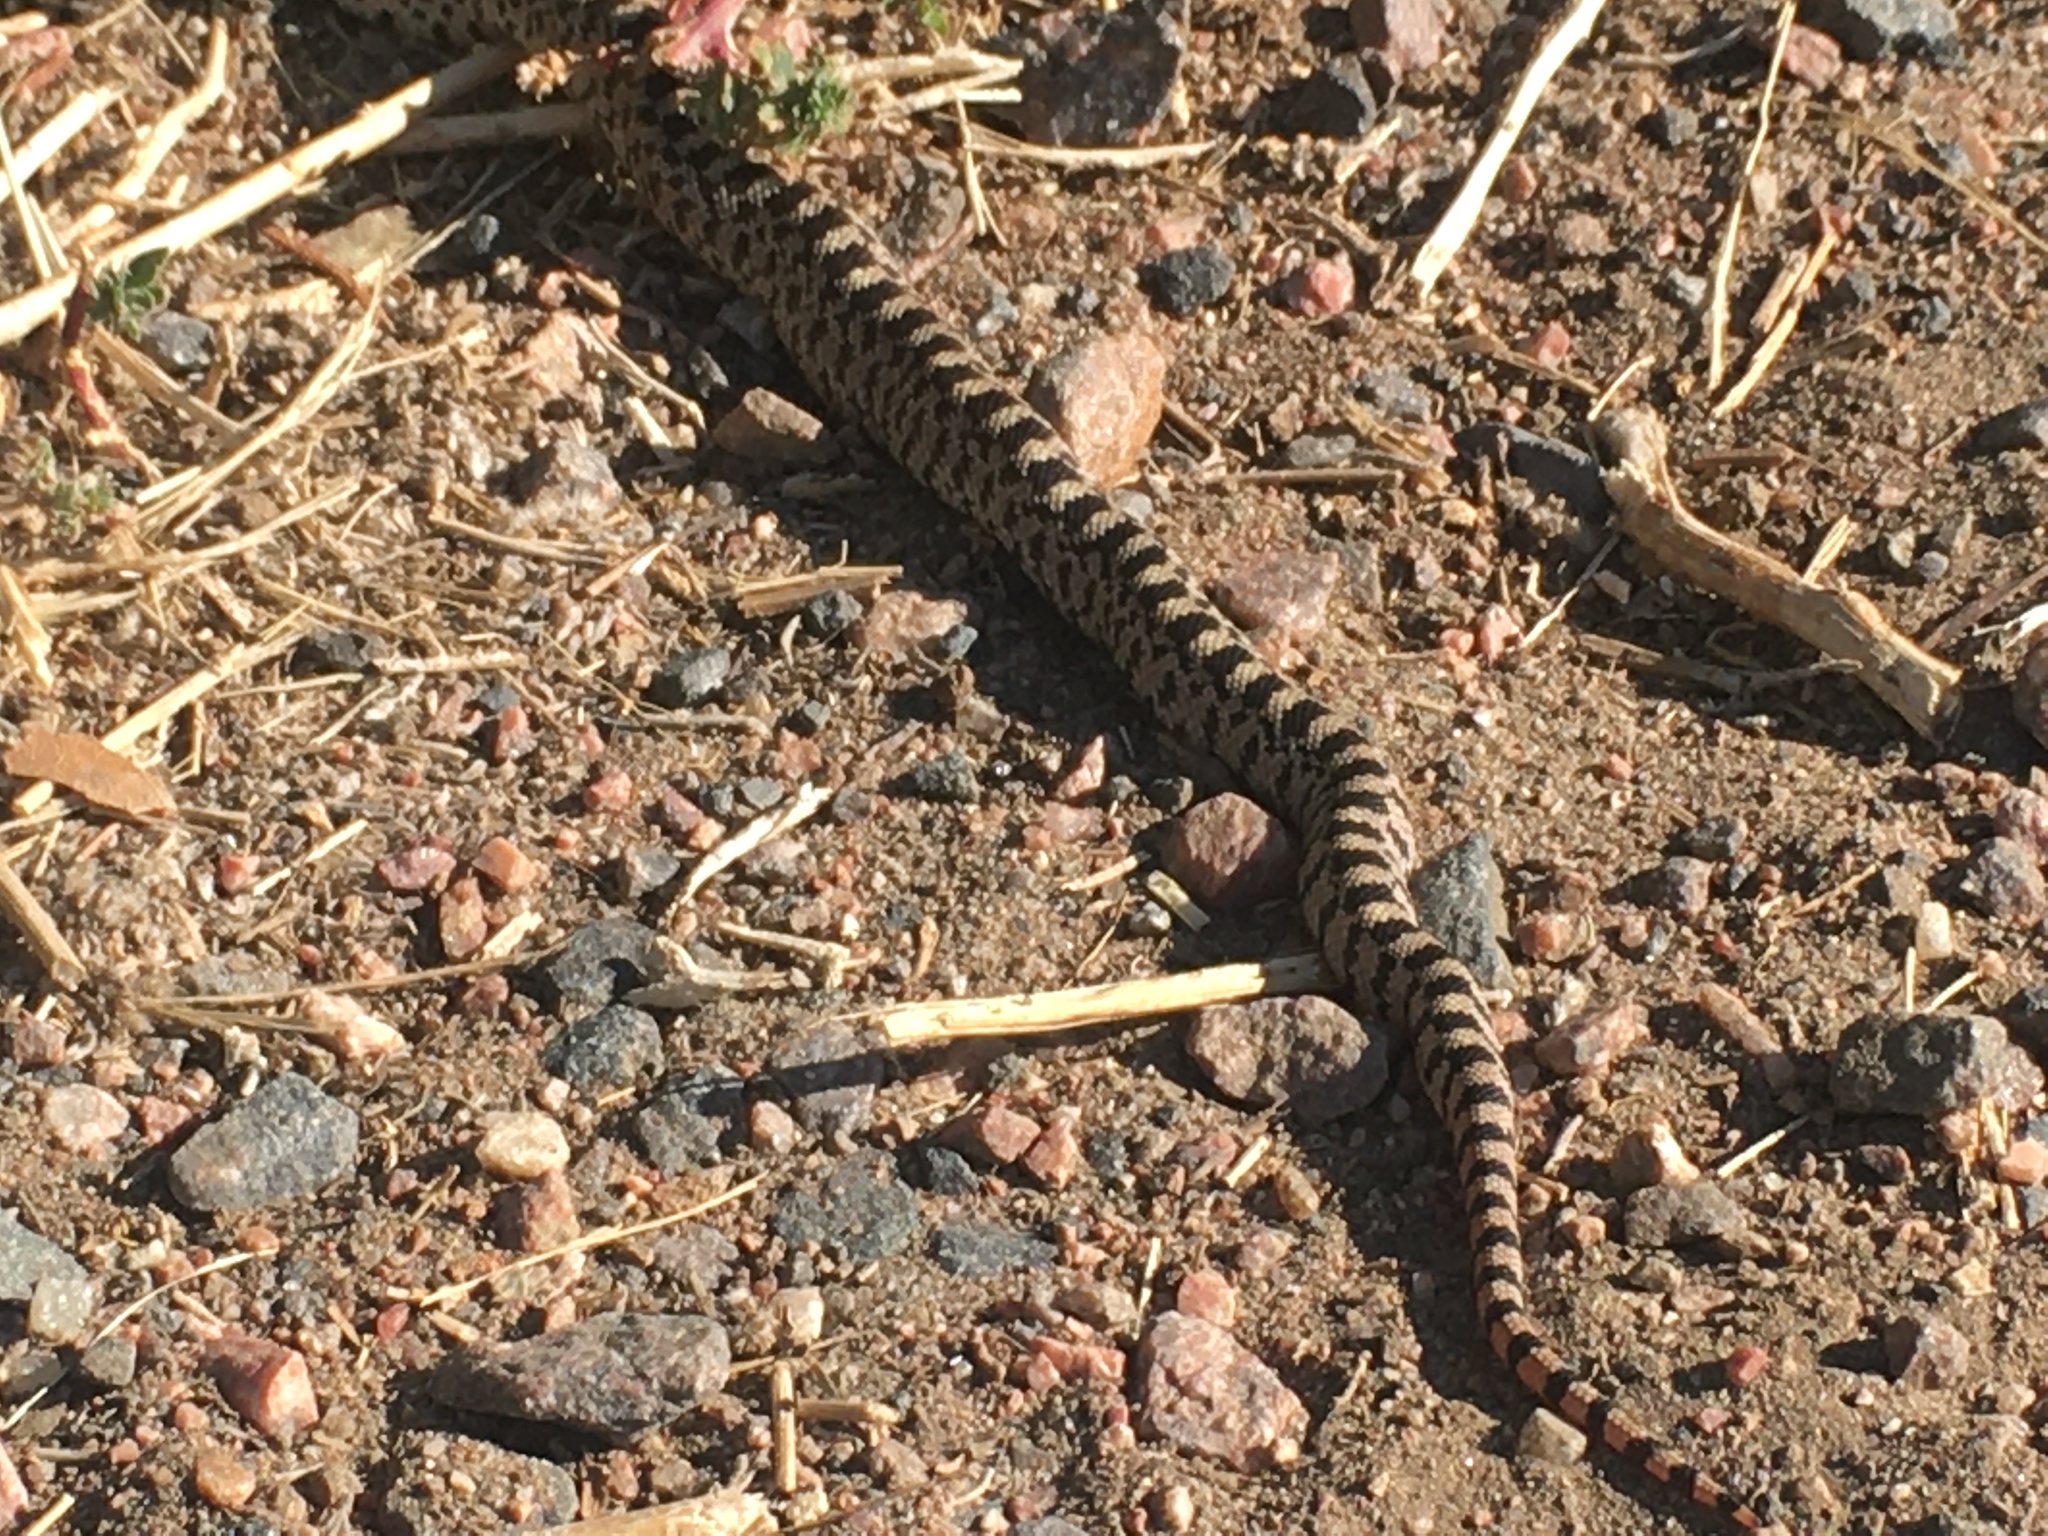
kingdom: Animalia
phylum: Chordata
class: Squamata
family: Colubridae
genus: Pituophis
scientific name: Pituophis catenifer
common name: Gopher snake
